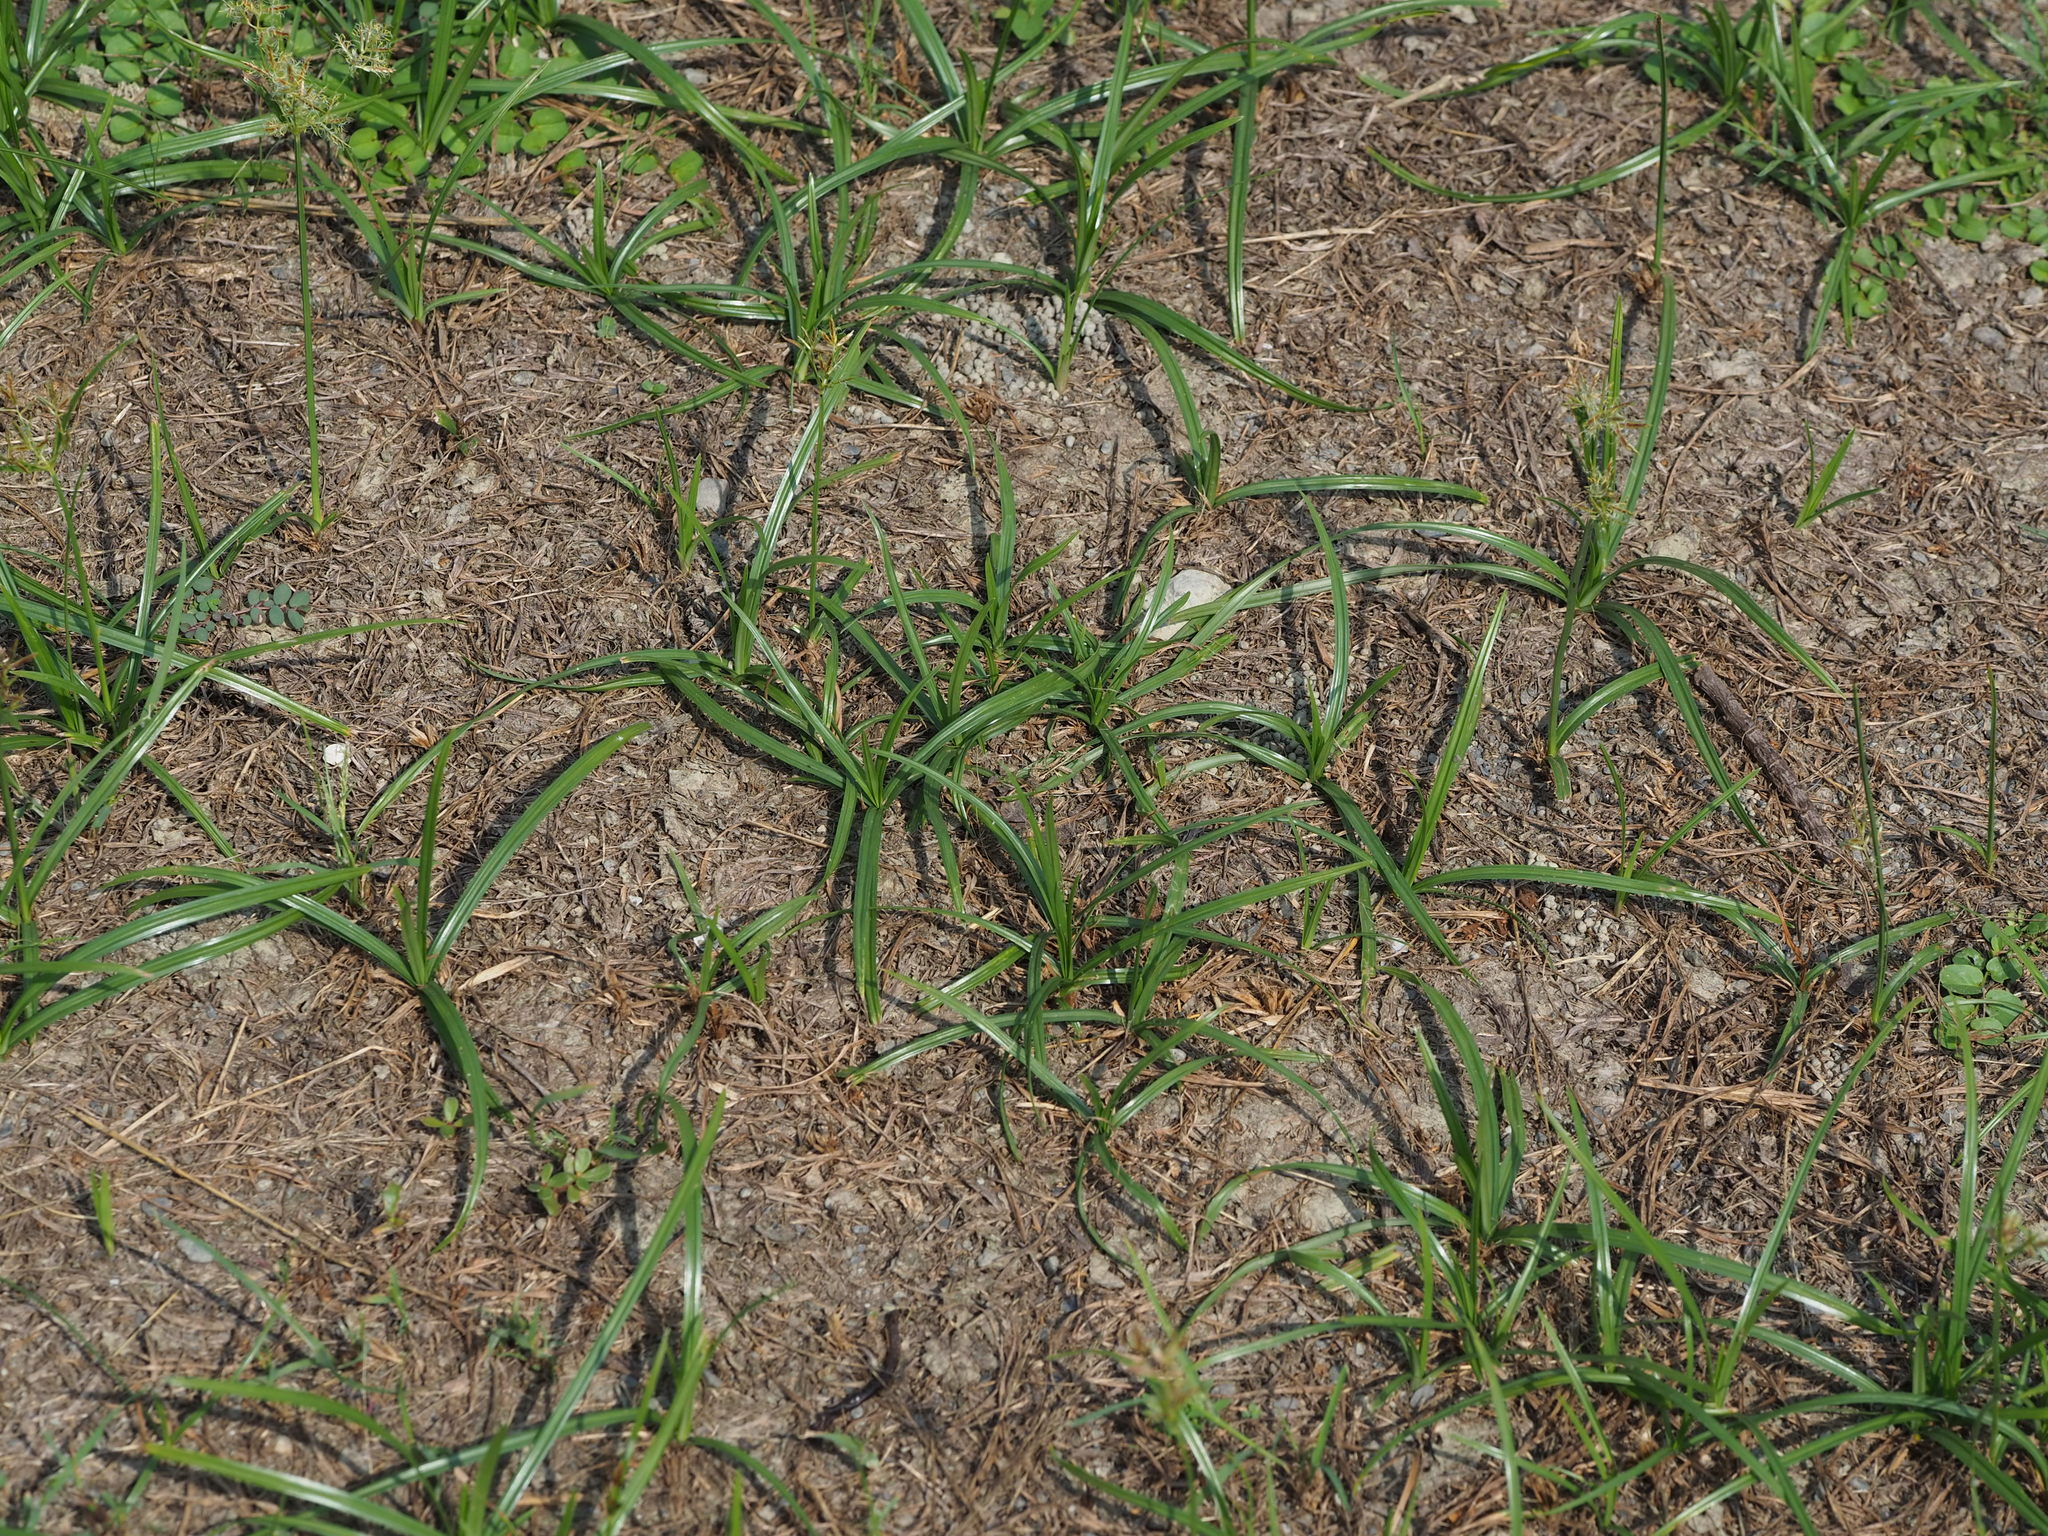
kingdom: Plantae
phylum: Tracheophyta
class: Liliopsida
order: Poales
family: Cyperaceae
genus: Cyperus
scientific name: Cyperus rotundus
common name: Nutgrass
